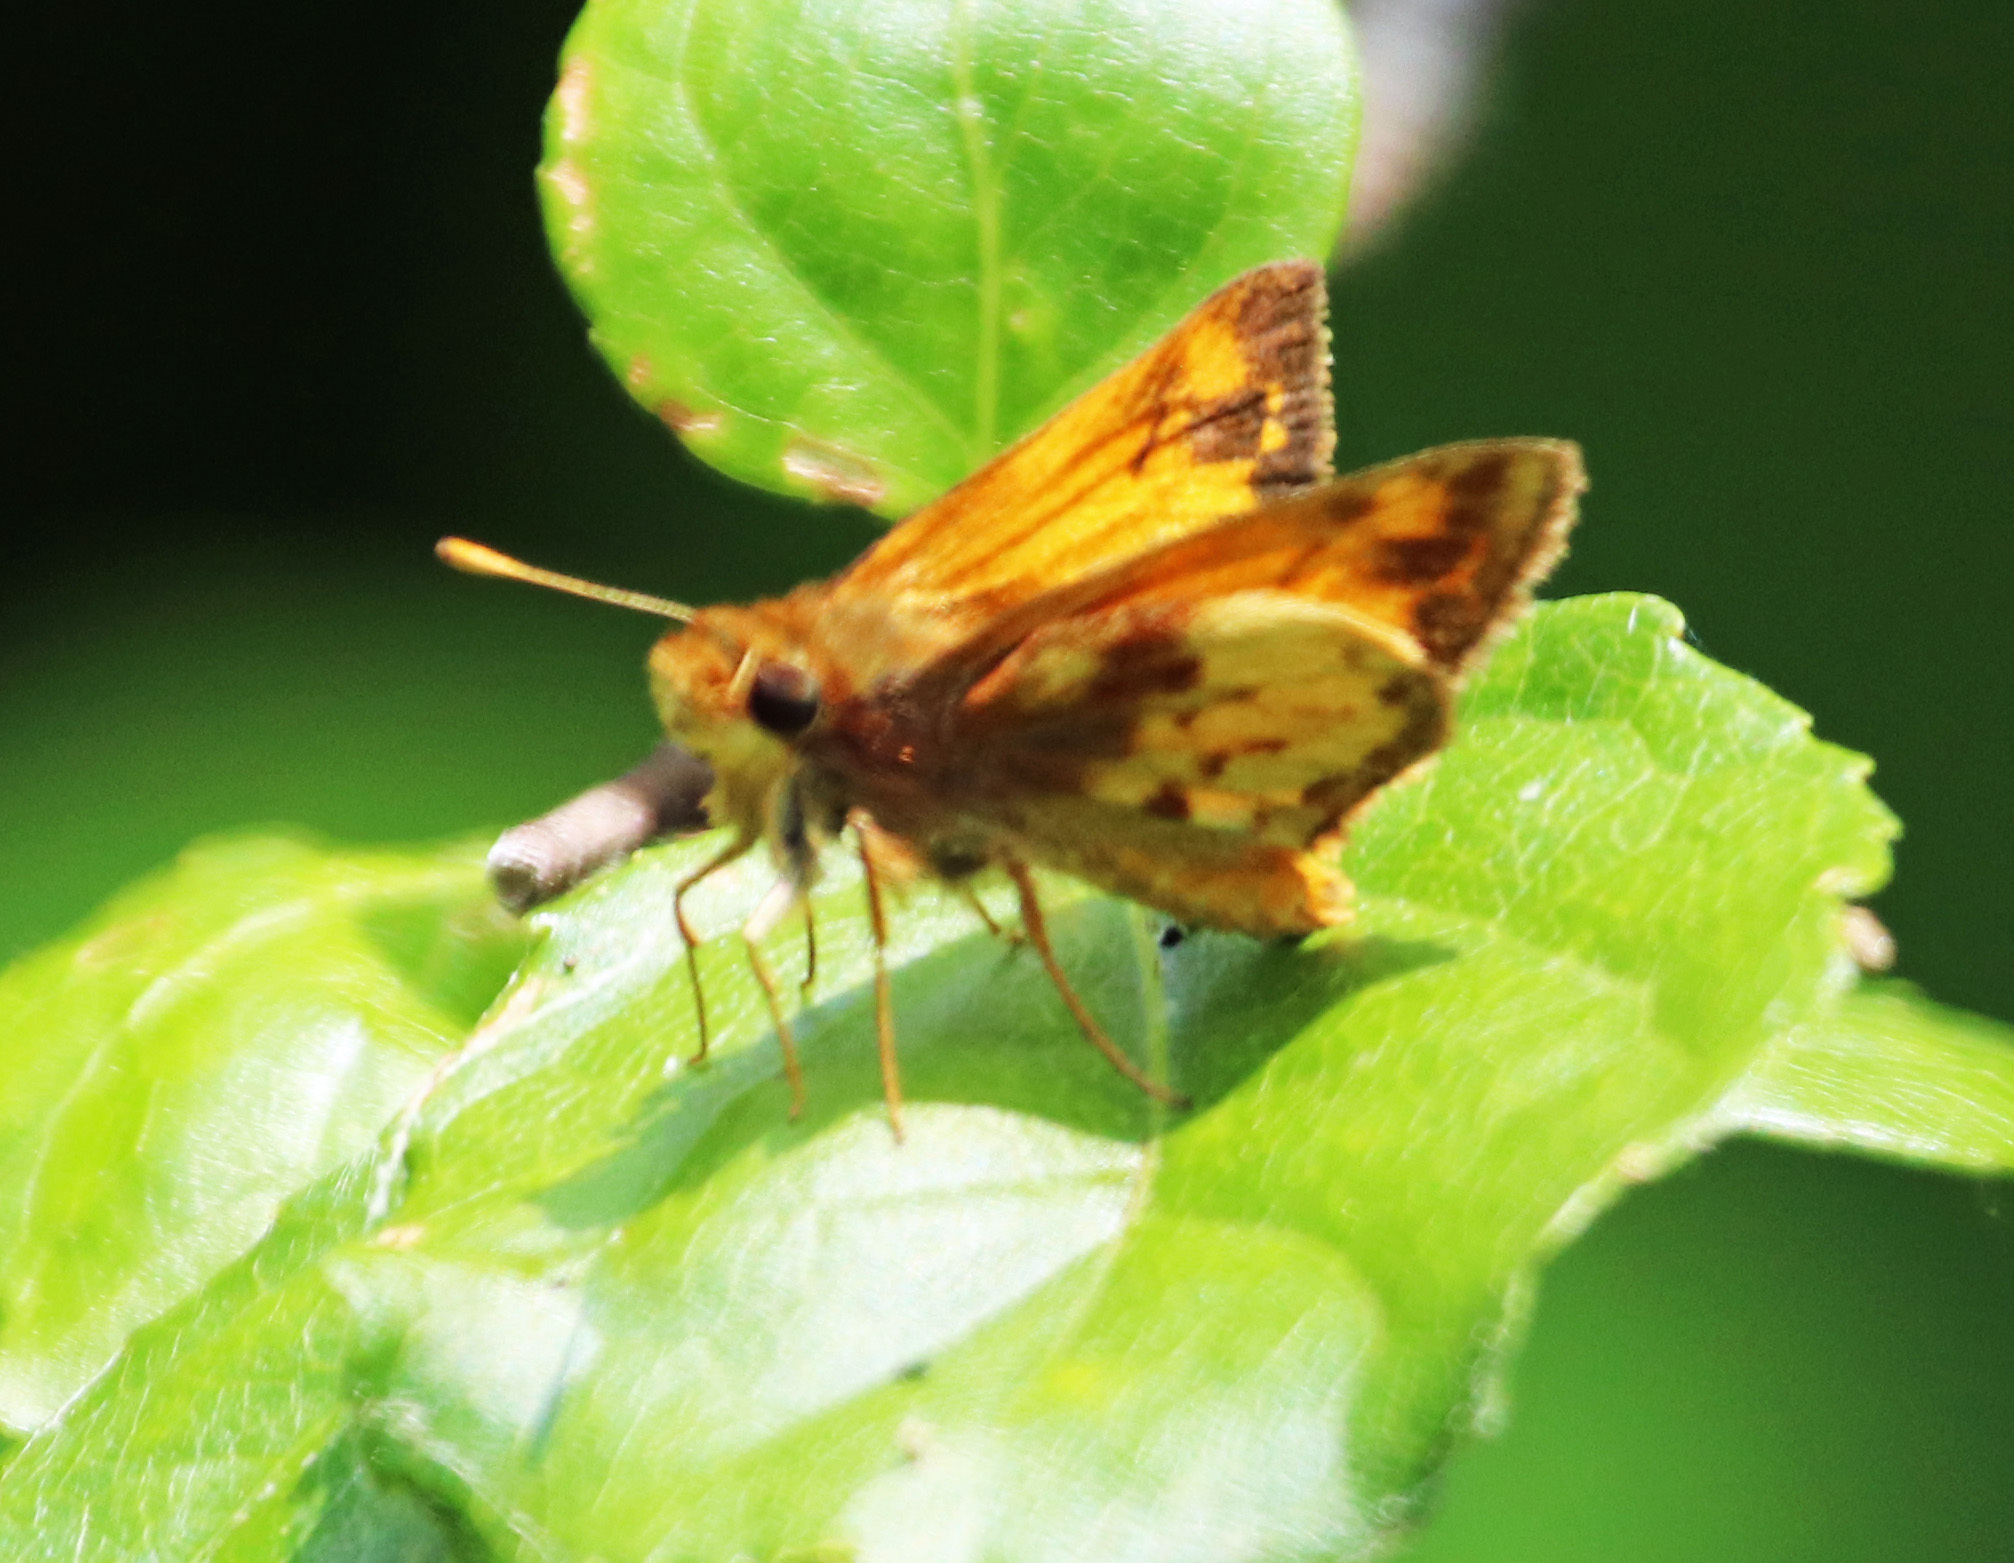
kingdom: Animalia
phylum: Arthropoda
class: Insecta
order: Lepidoptera
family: Hesperiidae
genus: Lon
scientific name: Lon zabulon
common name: Zabulon skipper
